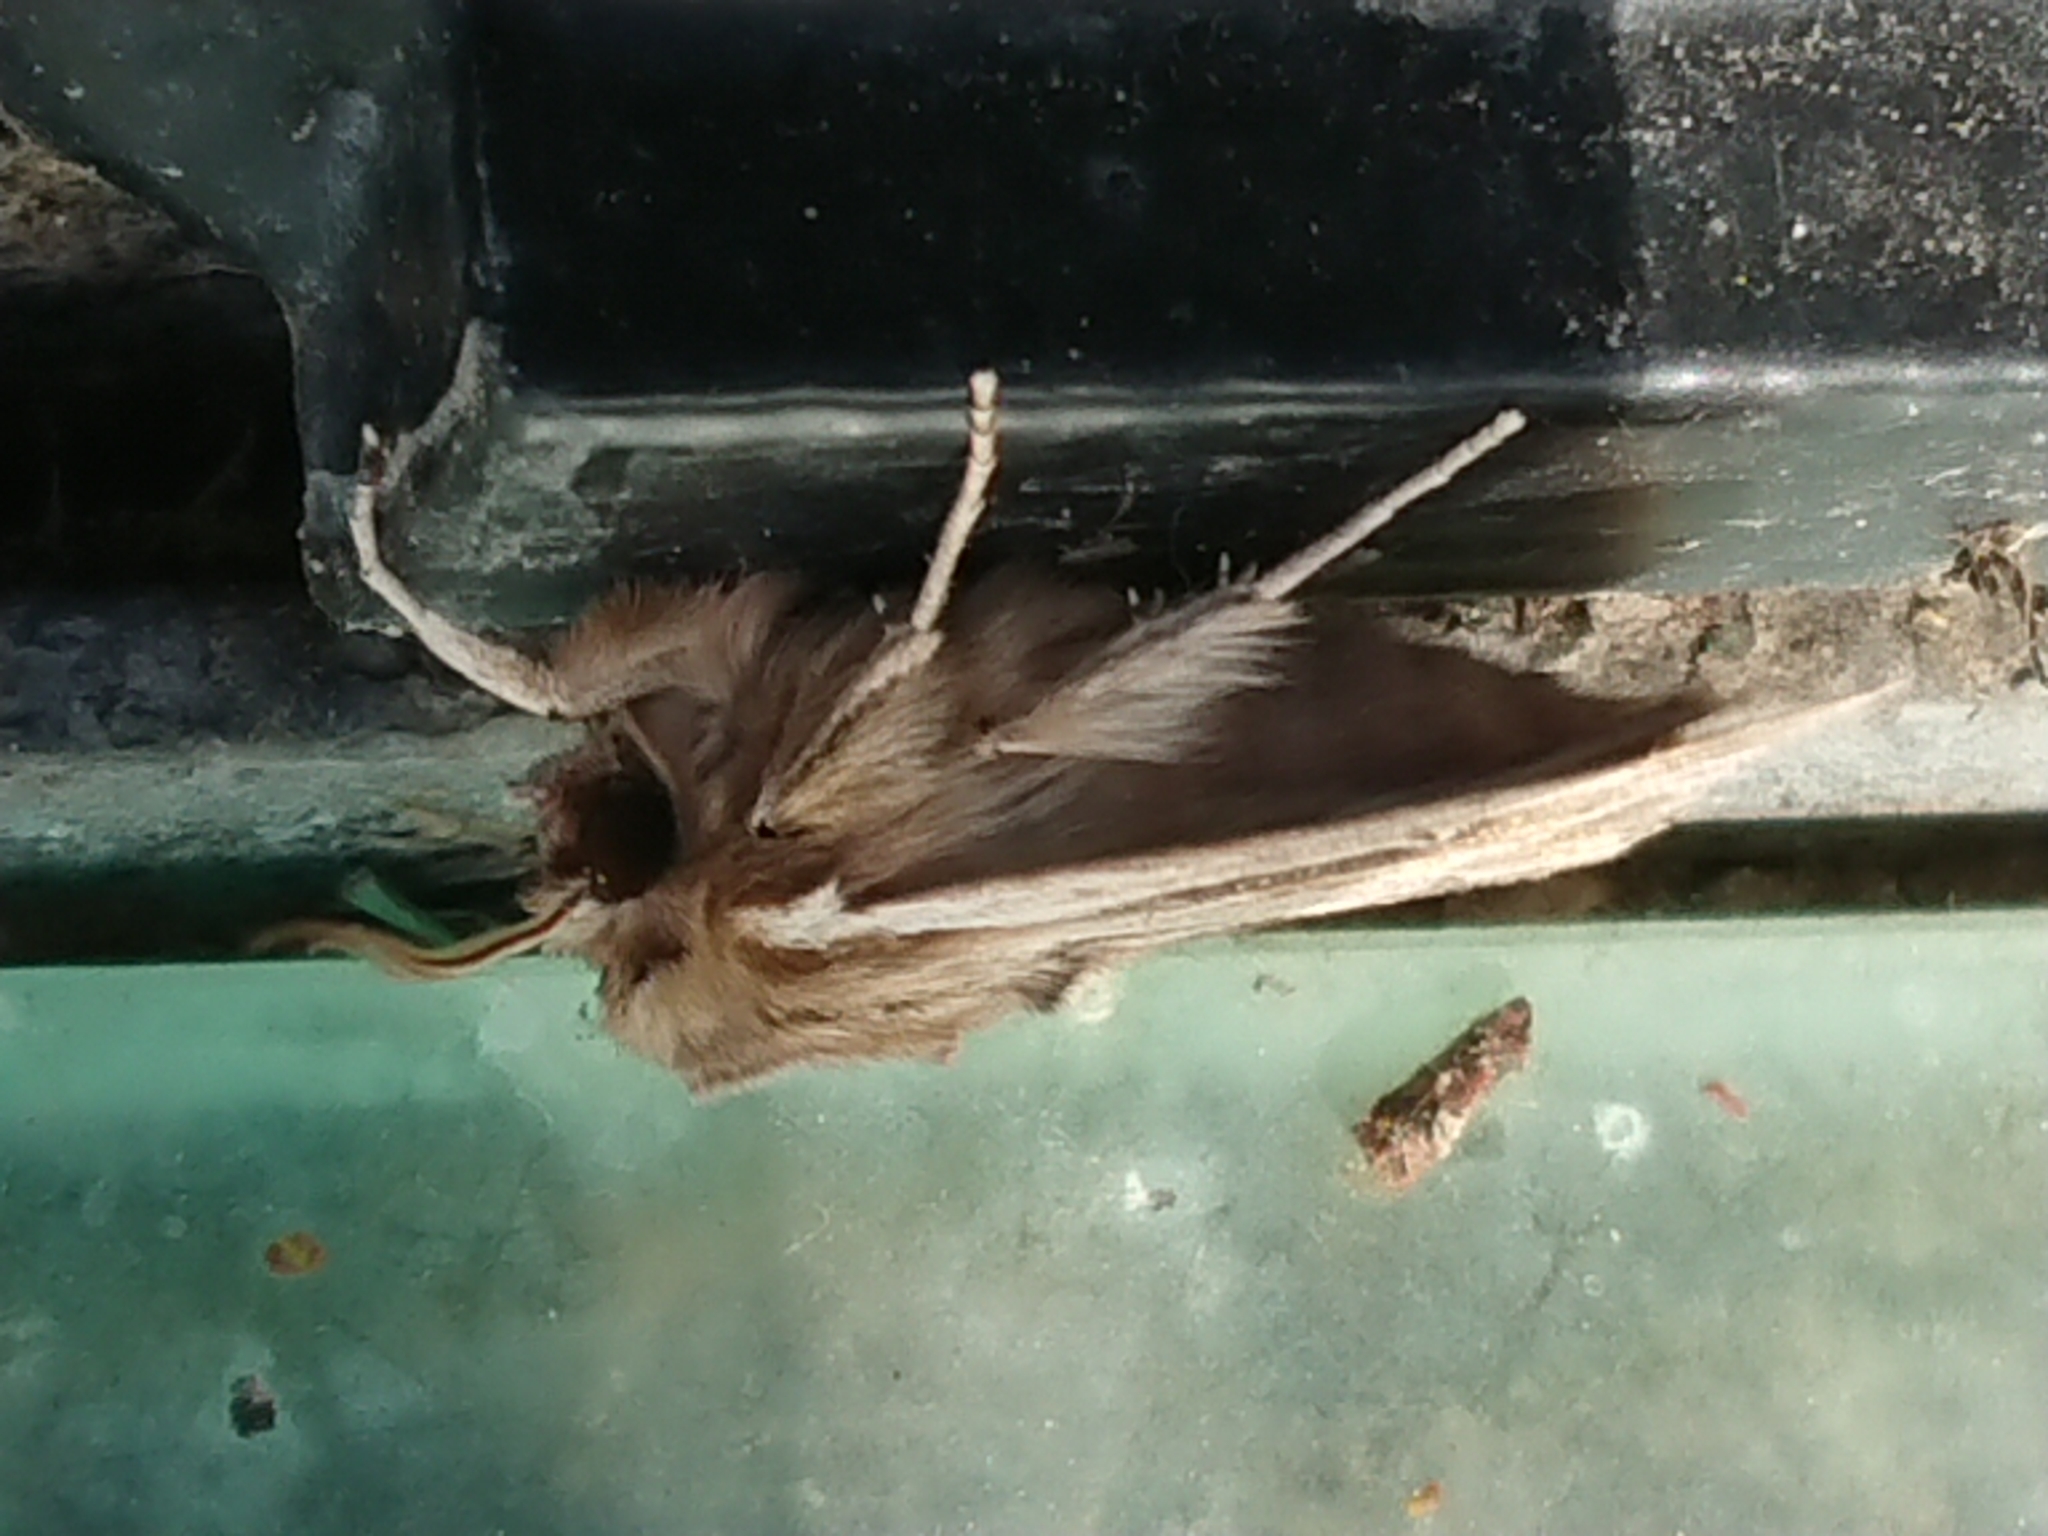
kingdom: Animalia
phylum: Arthropoda
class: Insecta
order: Lepidoptera
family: Noctuidae
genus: Persectania
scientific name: Persectania aversa
